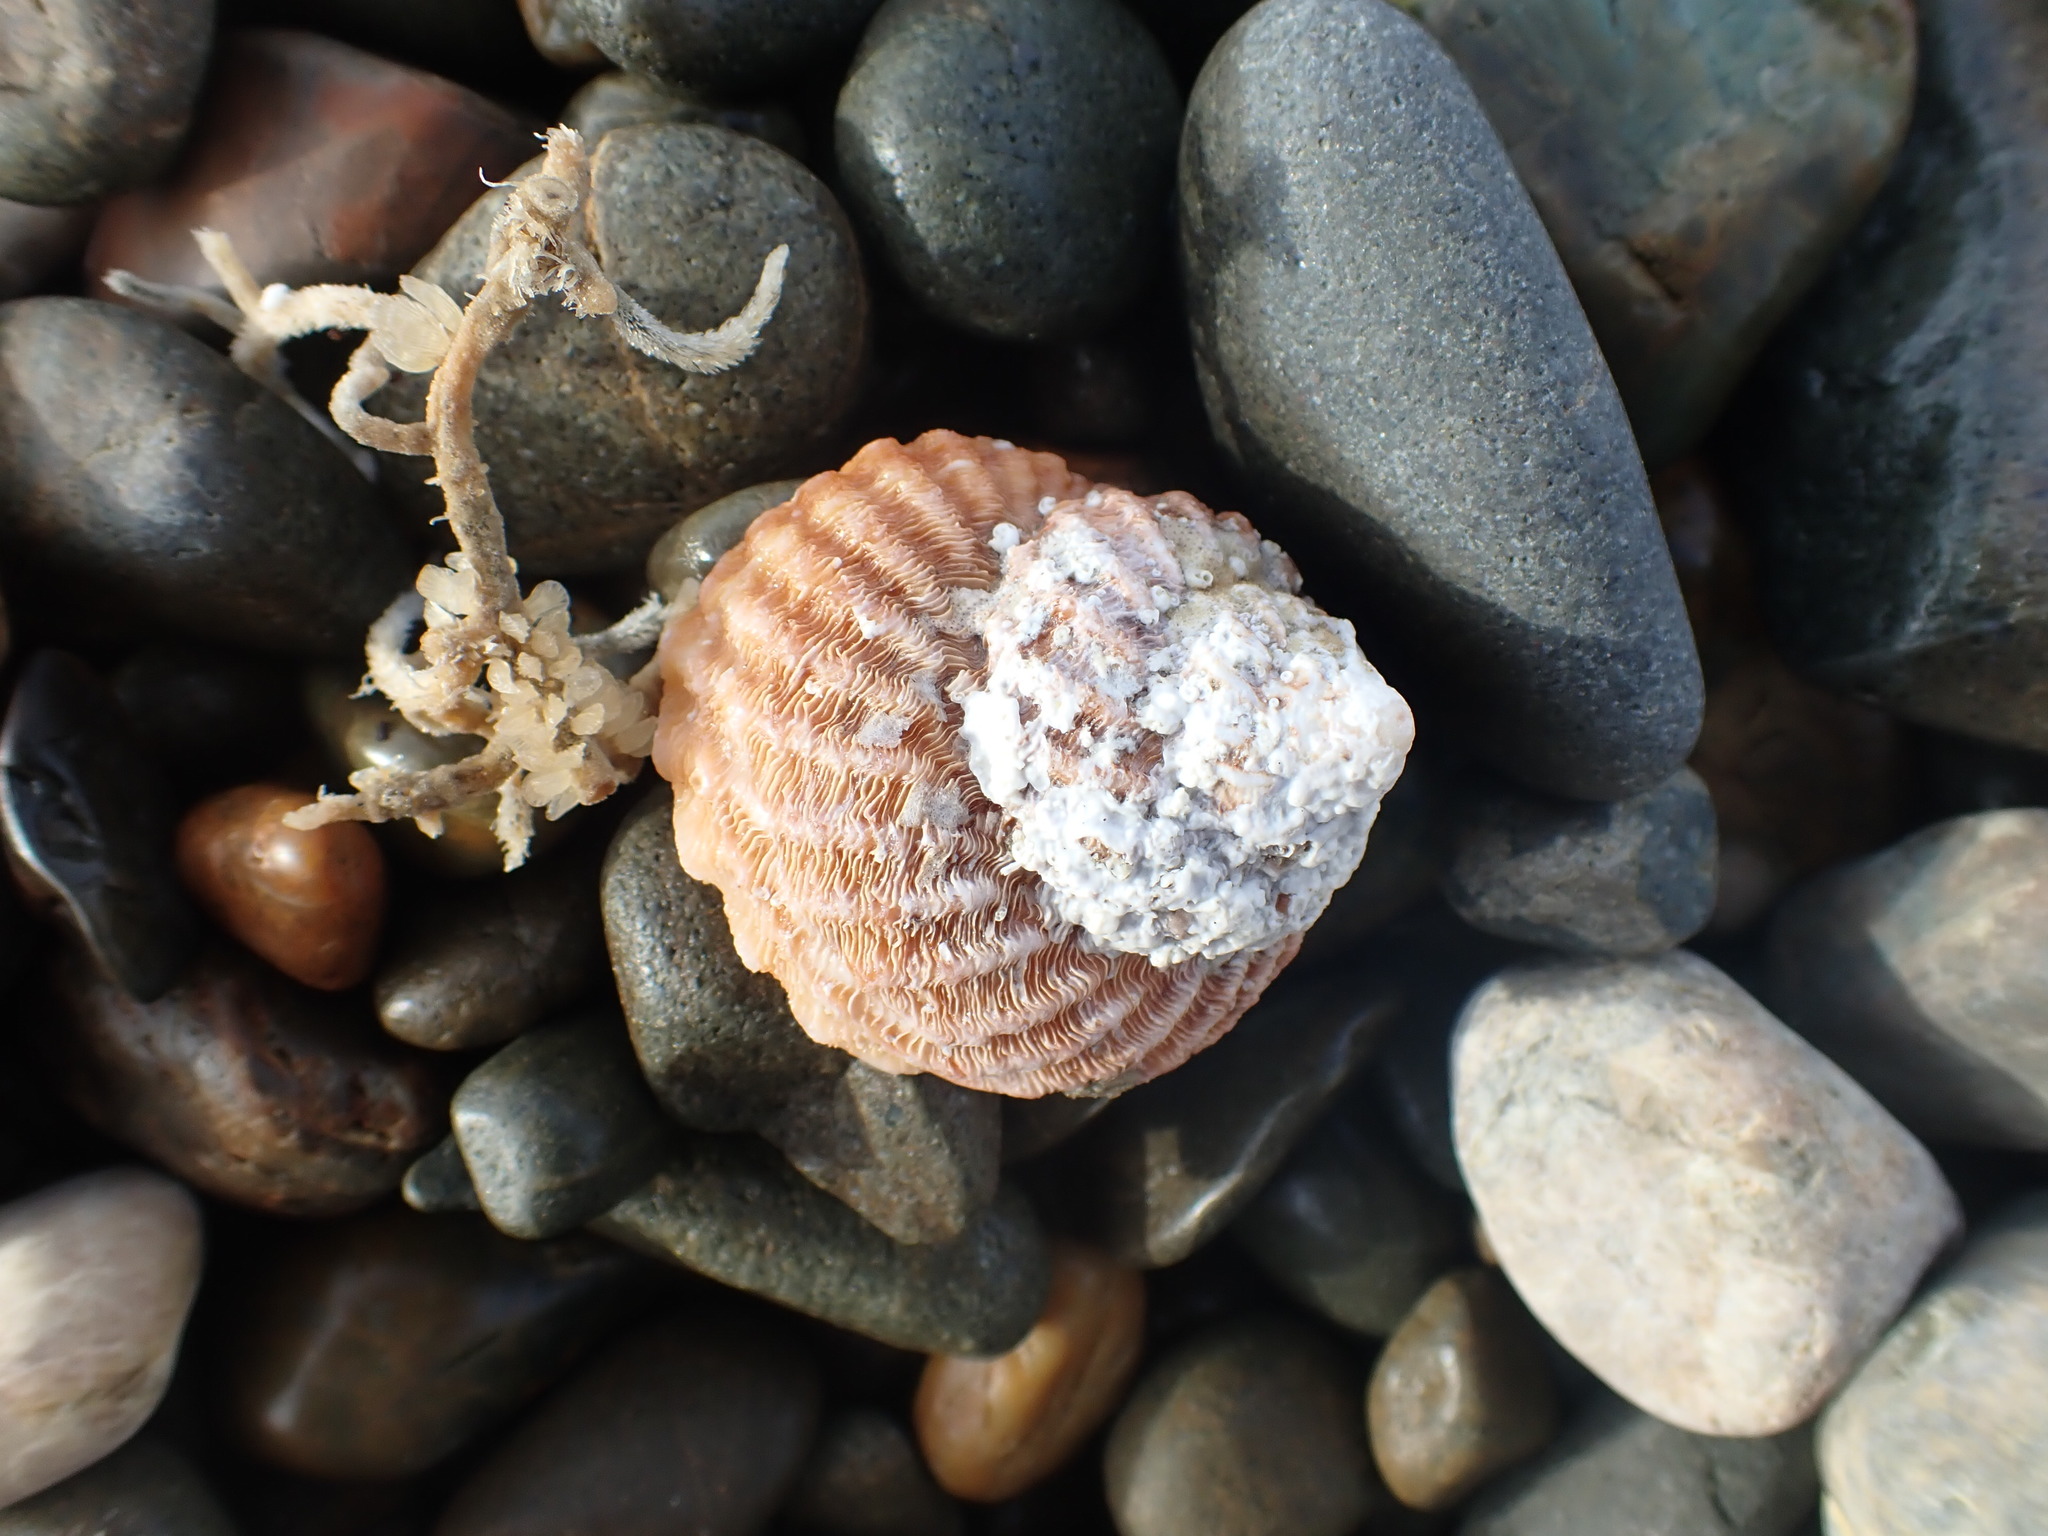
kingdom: Animalia
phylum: Mollusca
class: Gastropoda
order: Trochida
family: Turbinidae
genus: Cookia
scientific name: Cookia sulcata
